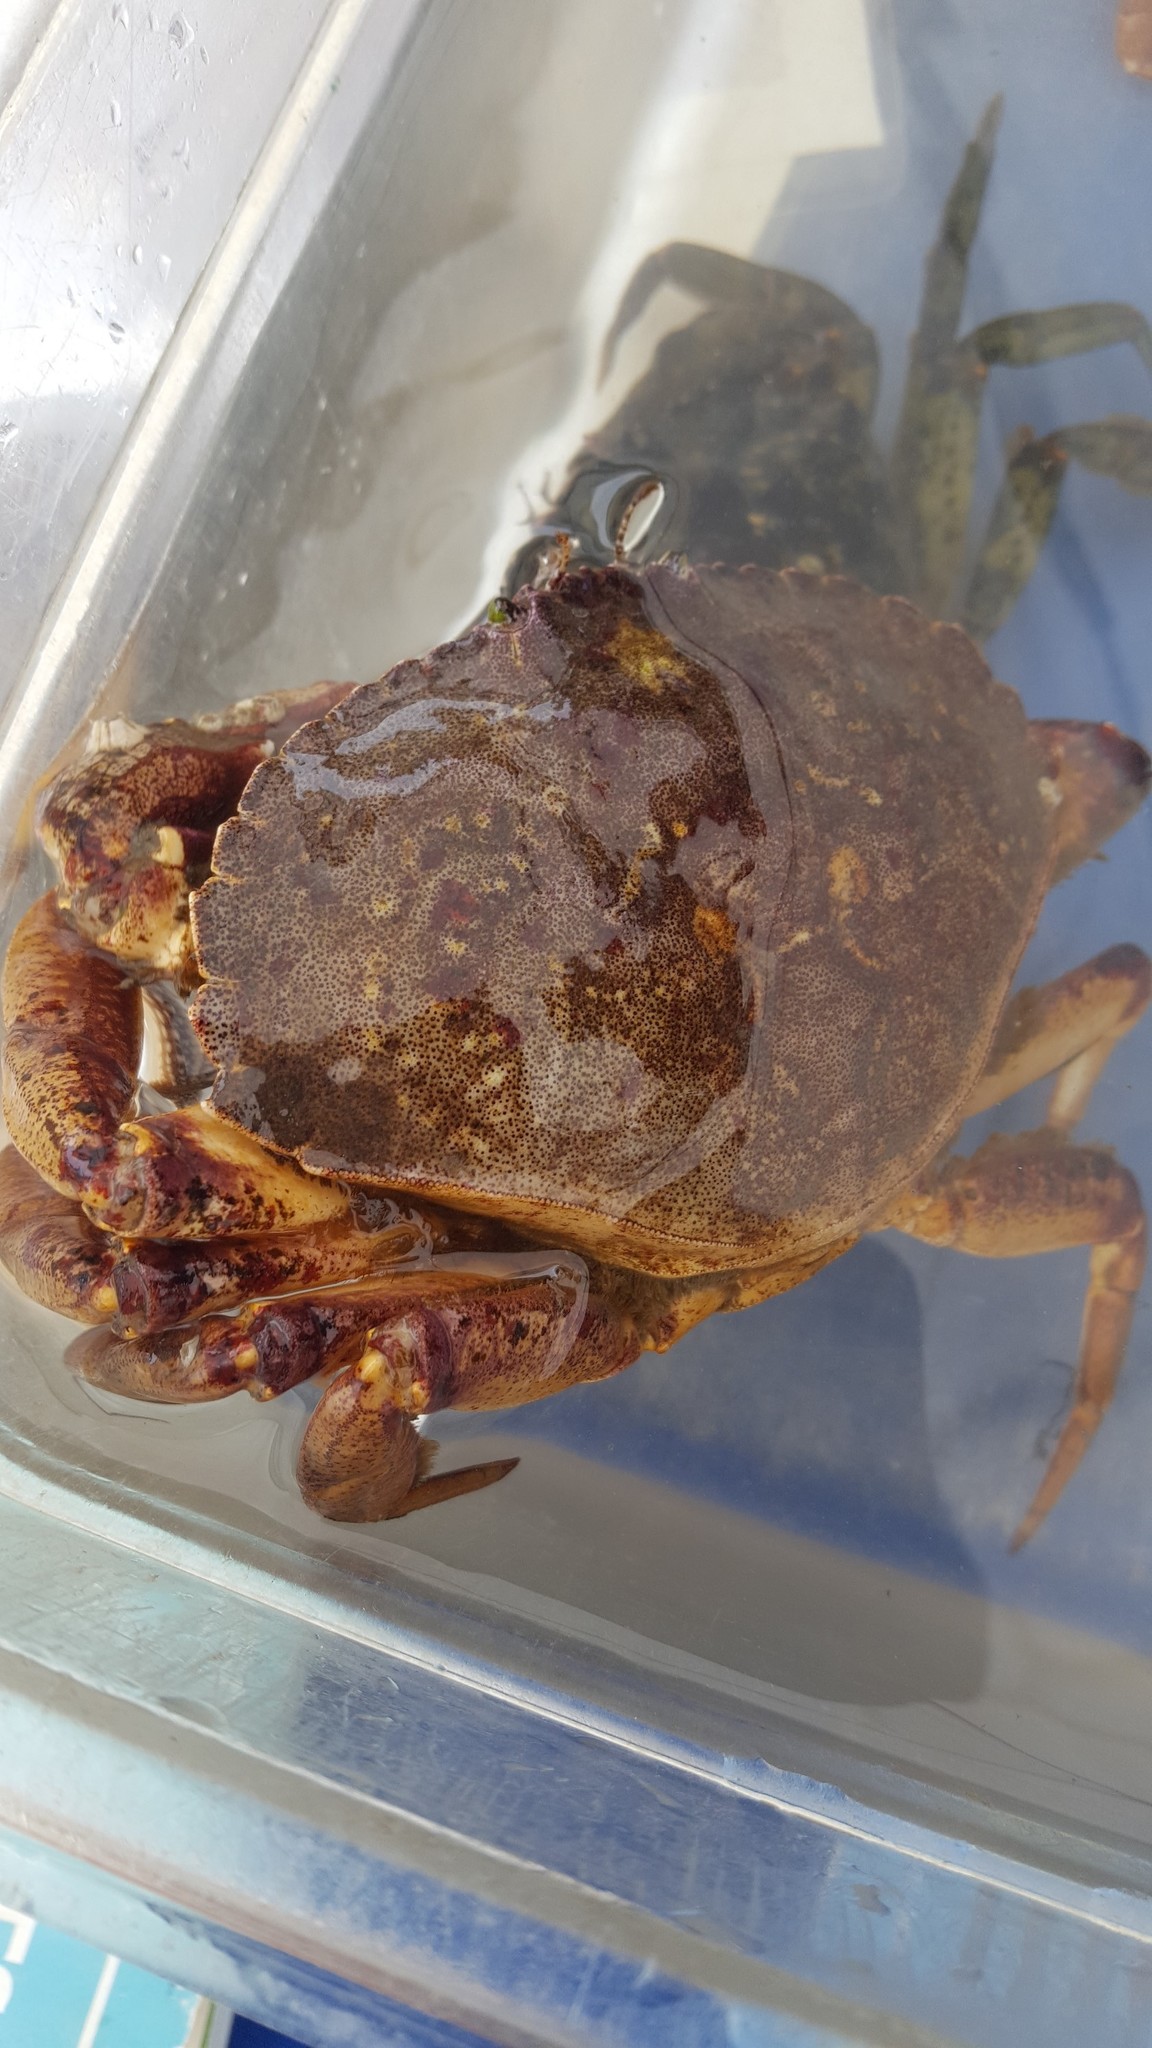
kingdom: Animalia
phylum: Arthropoda
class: Malacostraca
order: Decapoda
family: Cancridae
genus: Cancer
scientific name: Cancer irroratus
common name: Atlantic rock crab
